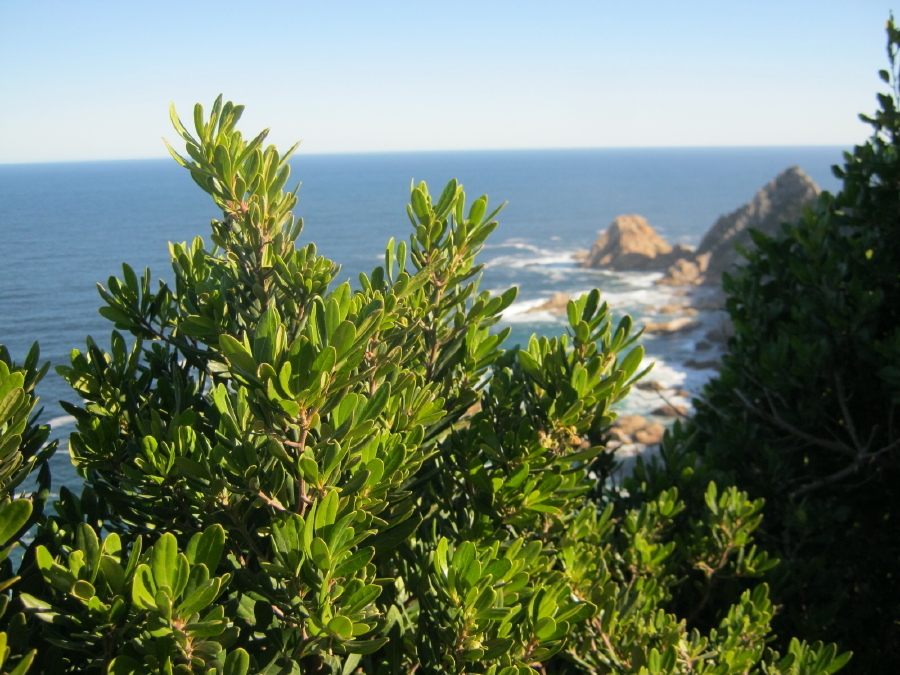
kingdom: Plantae
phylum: Tracheophyta
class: Magnoliopsida
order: Ericales
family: Ebenaceae
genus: Diospyros
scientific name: Diospyros dichrophylla
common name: Common star-apple
